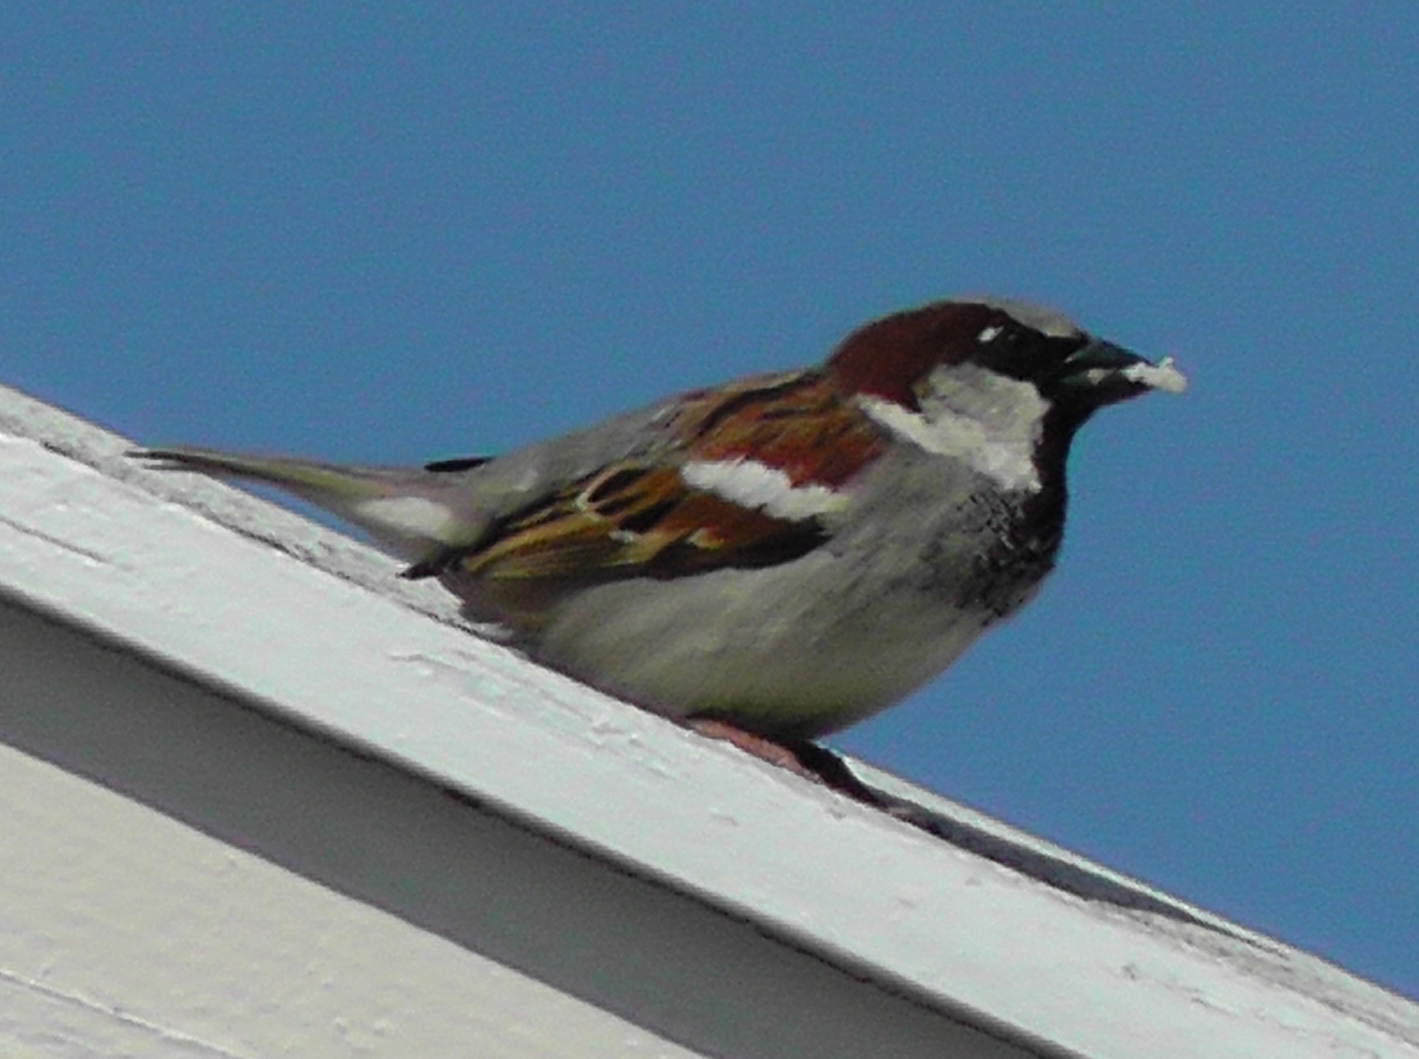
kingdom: Animalia
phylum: Chordata
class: Aves
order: Passeriformes
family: Passeridae
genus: Passer
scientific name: Passer domesticus
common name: House sparrow
